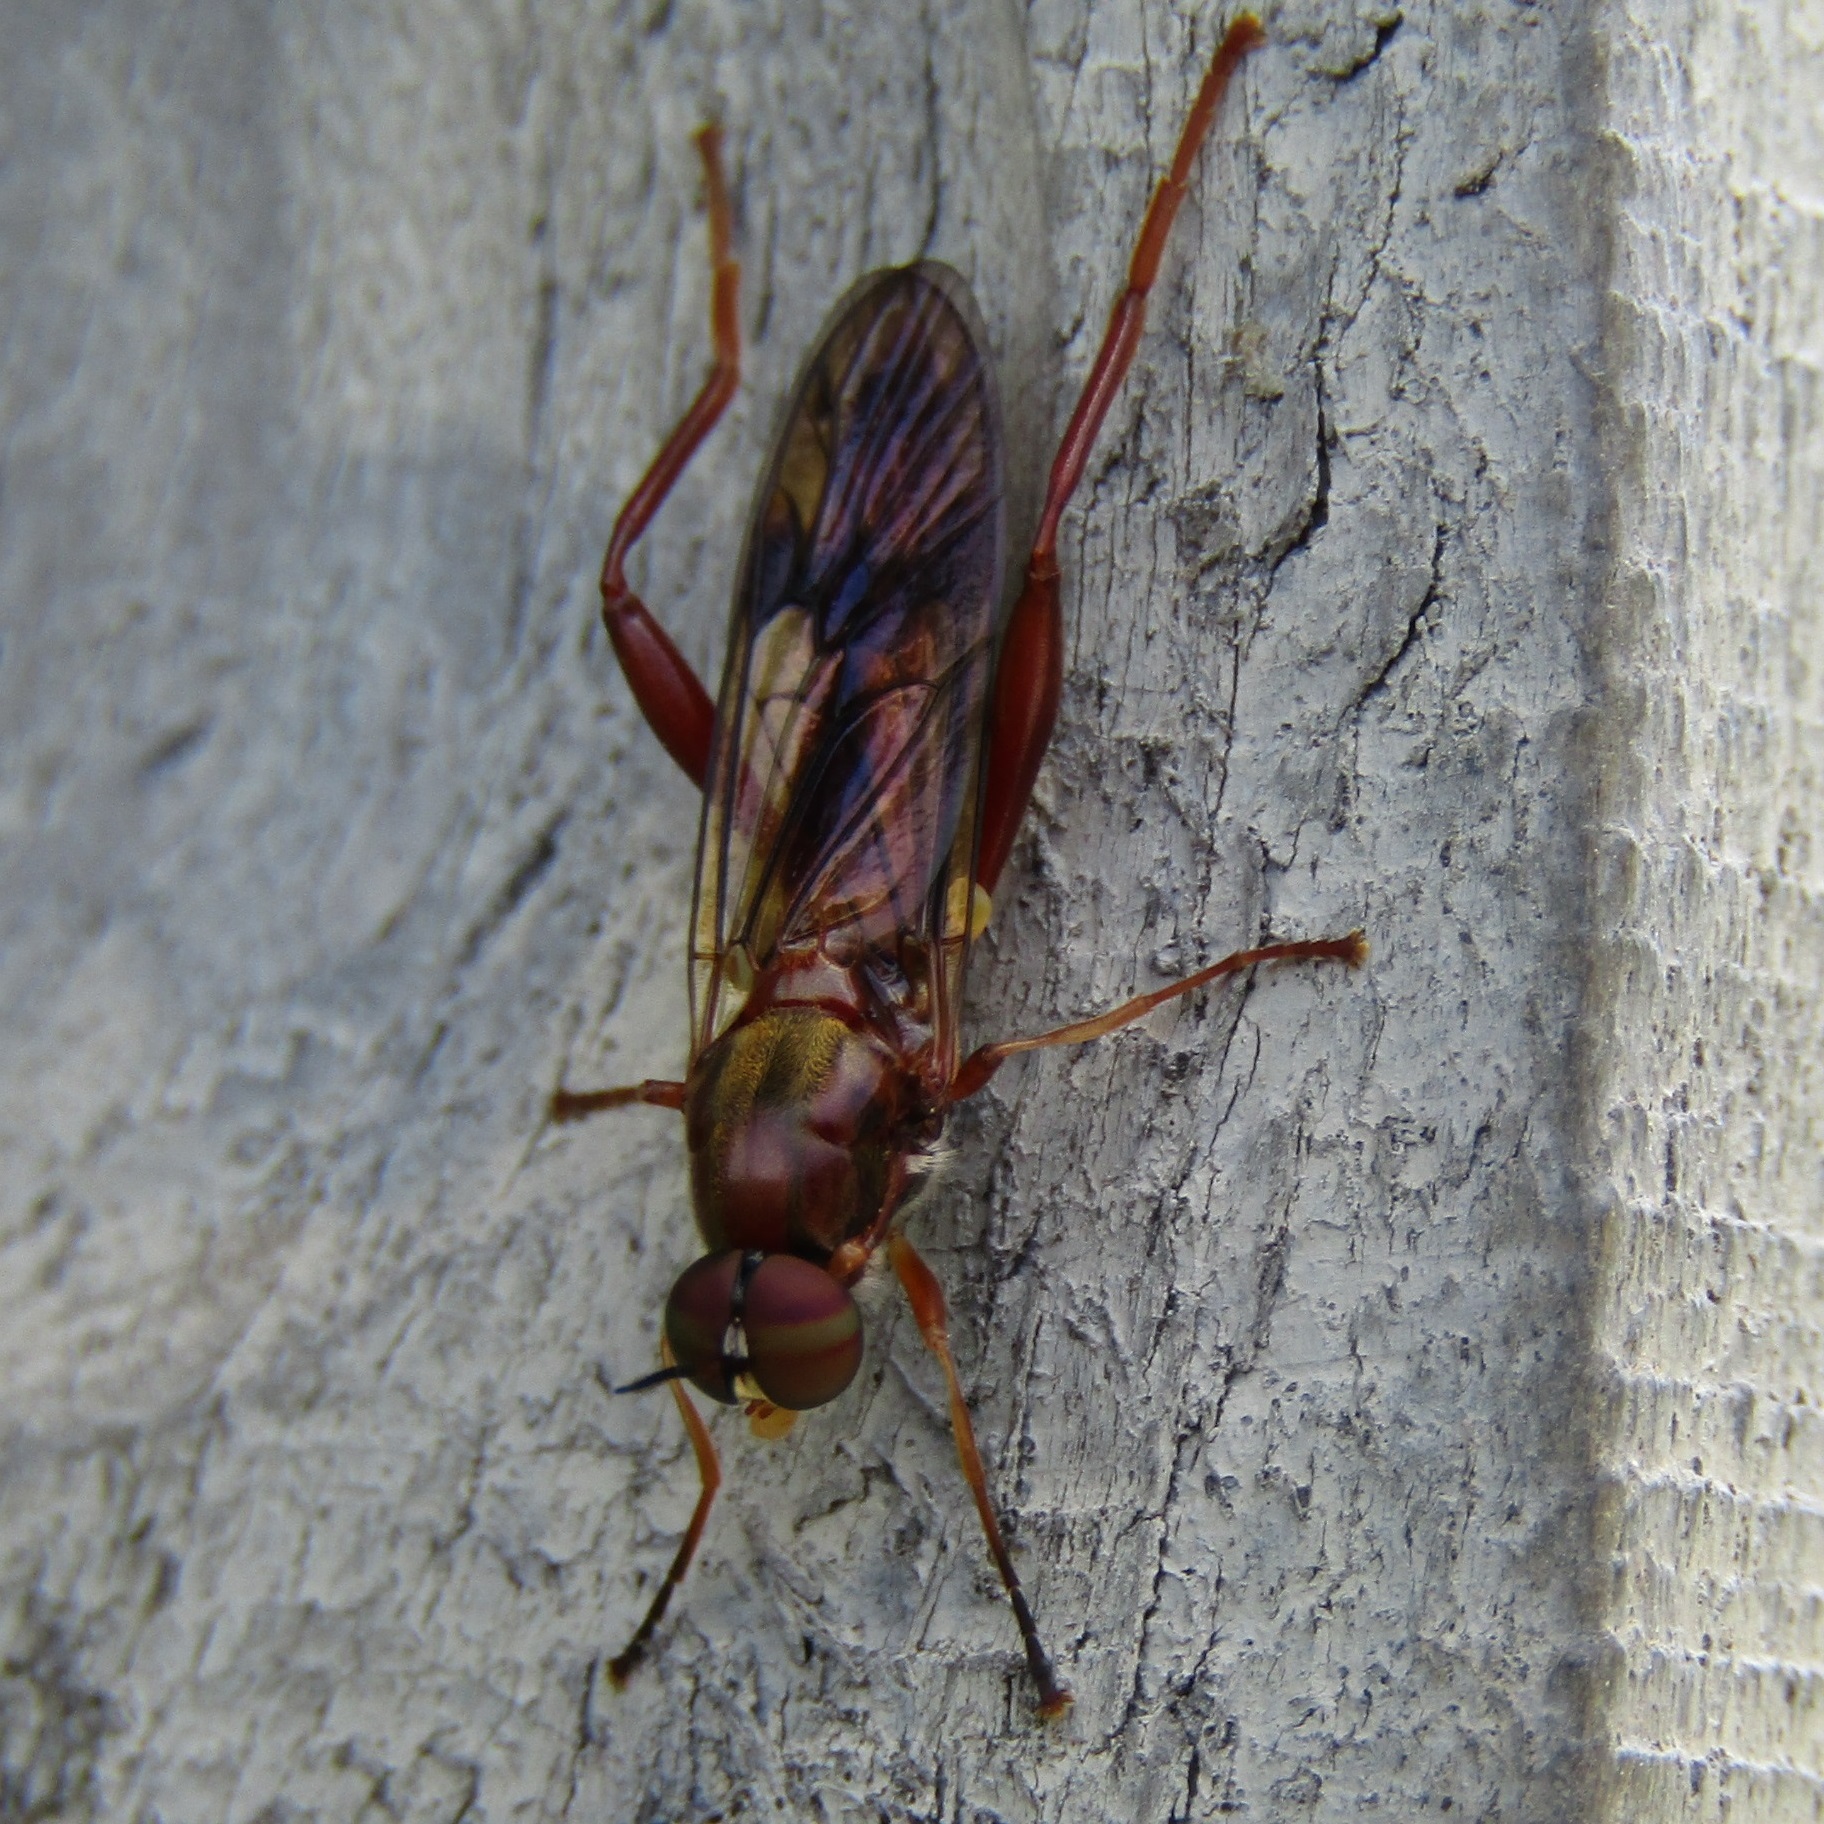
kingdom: Animalia
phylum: Arthropoda
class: Insecta
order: Diptera
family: Stratiomyidae
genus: Benhamyia
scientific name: Benhamyia straznitzkii
